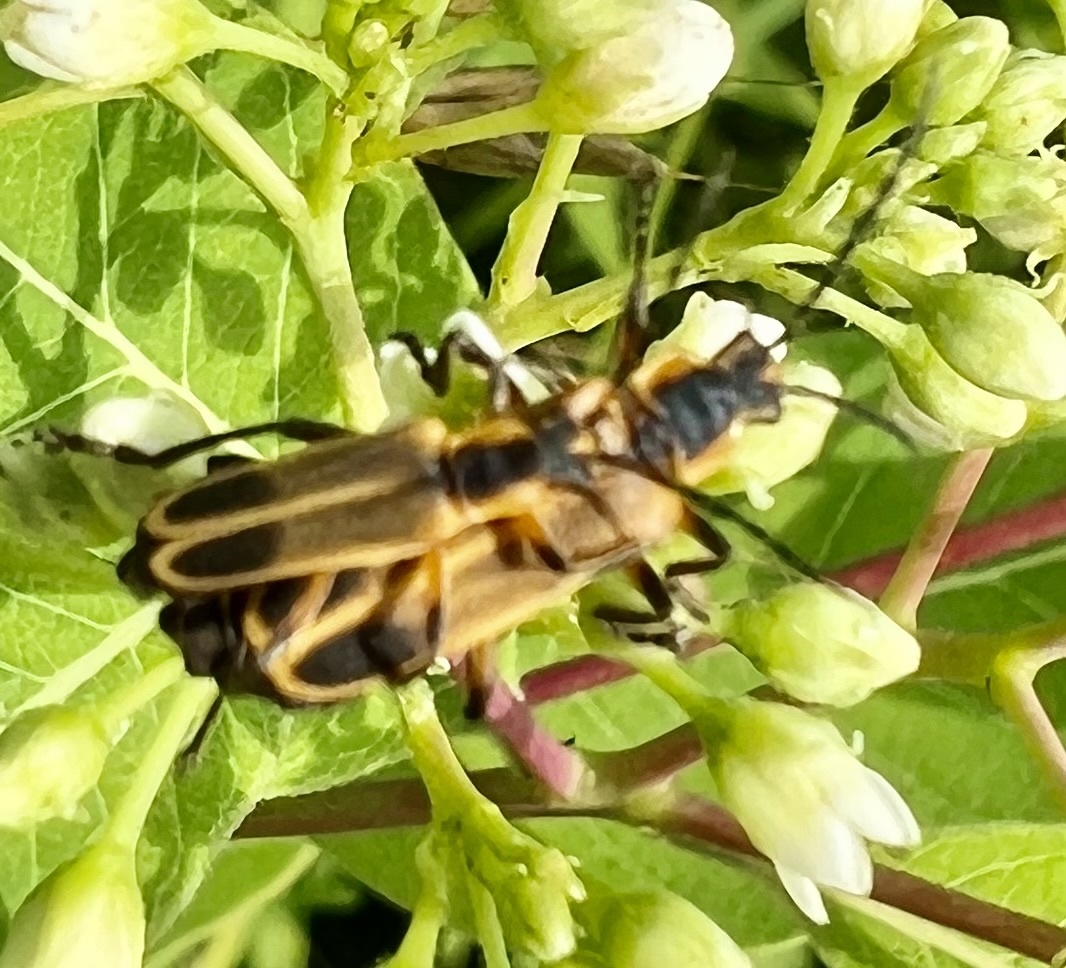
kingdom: Animalia
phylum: Arthropoda
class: Insecta
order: Coleoptera
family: Cantharidae
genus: Chauliognathus
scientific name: Chauliognathus marginatus
